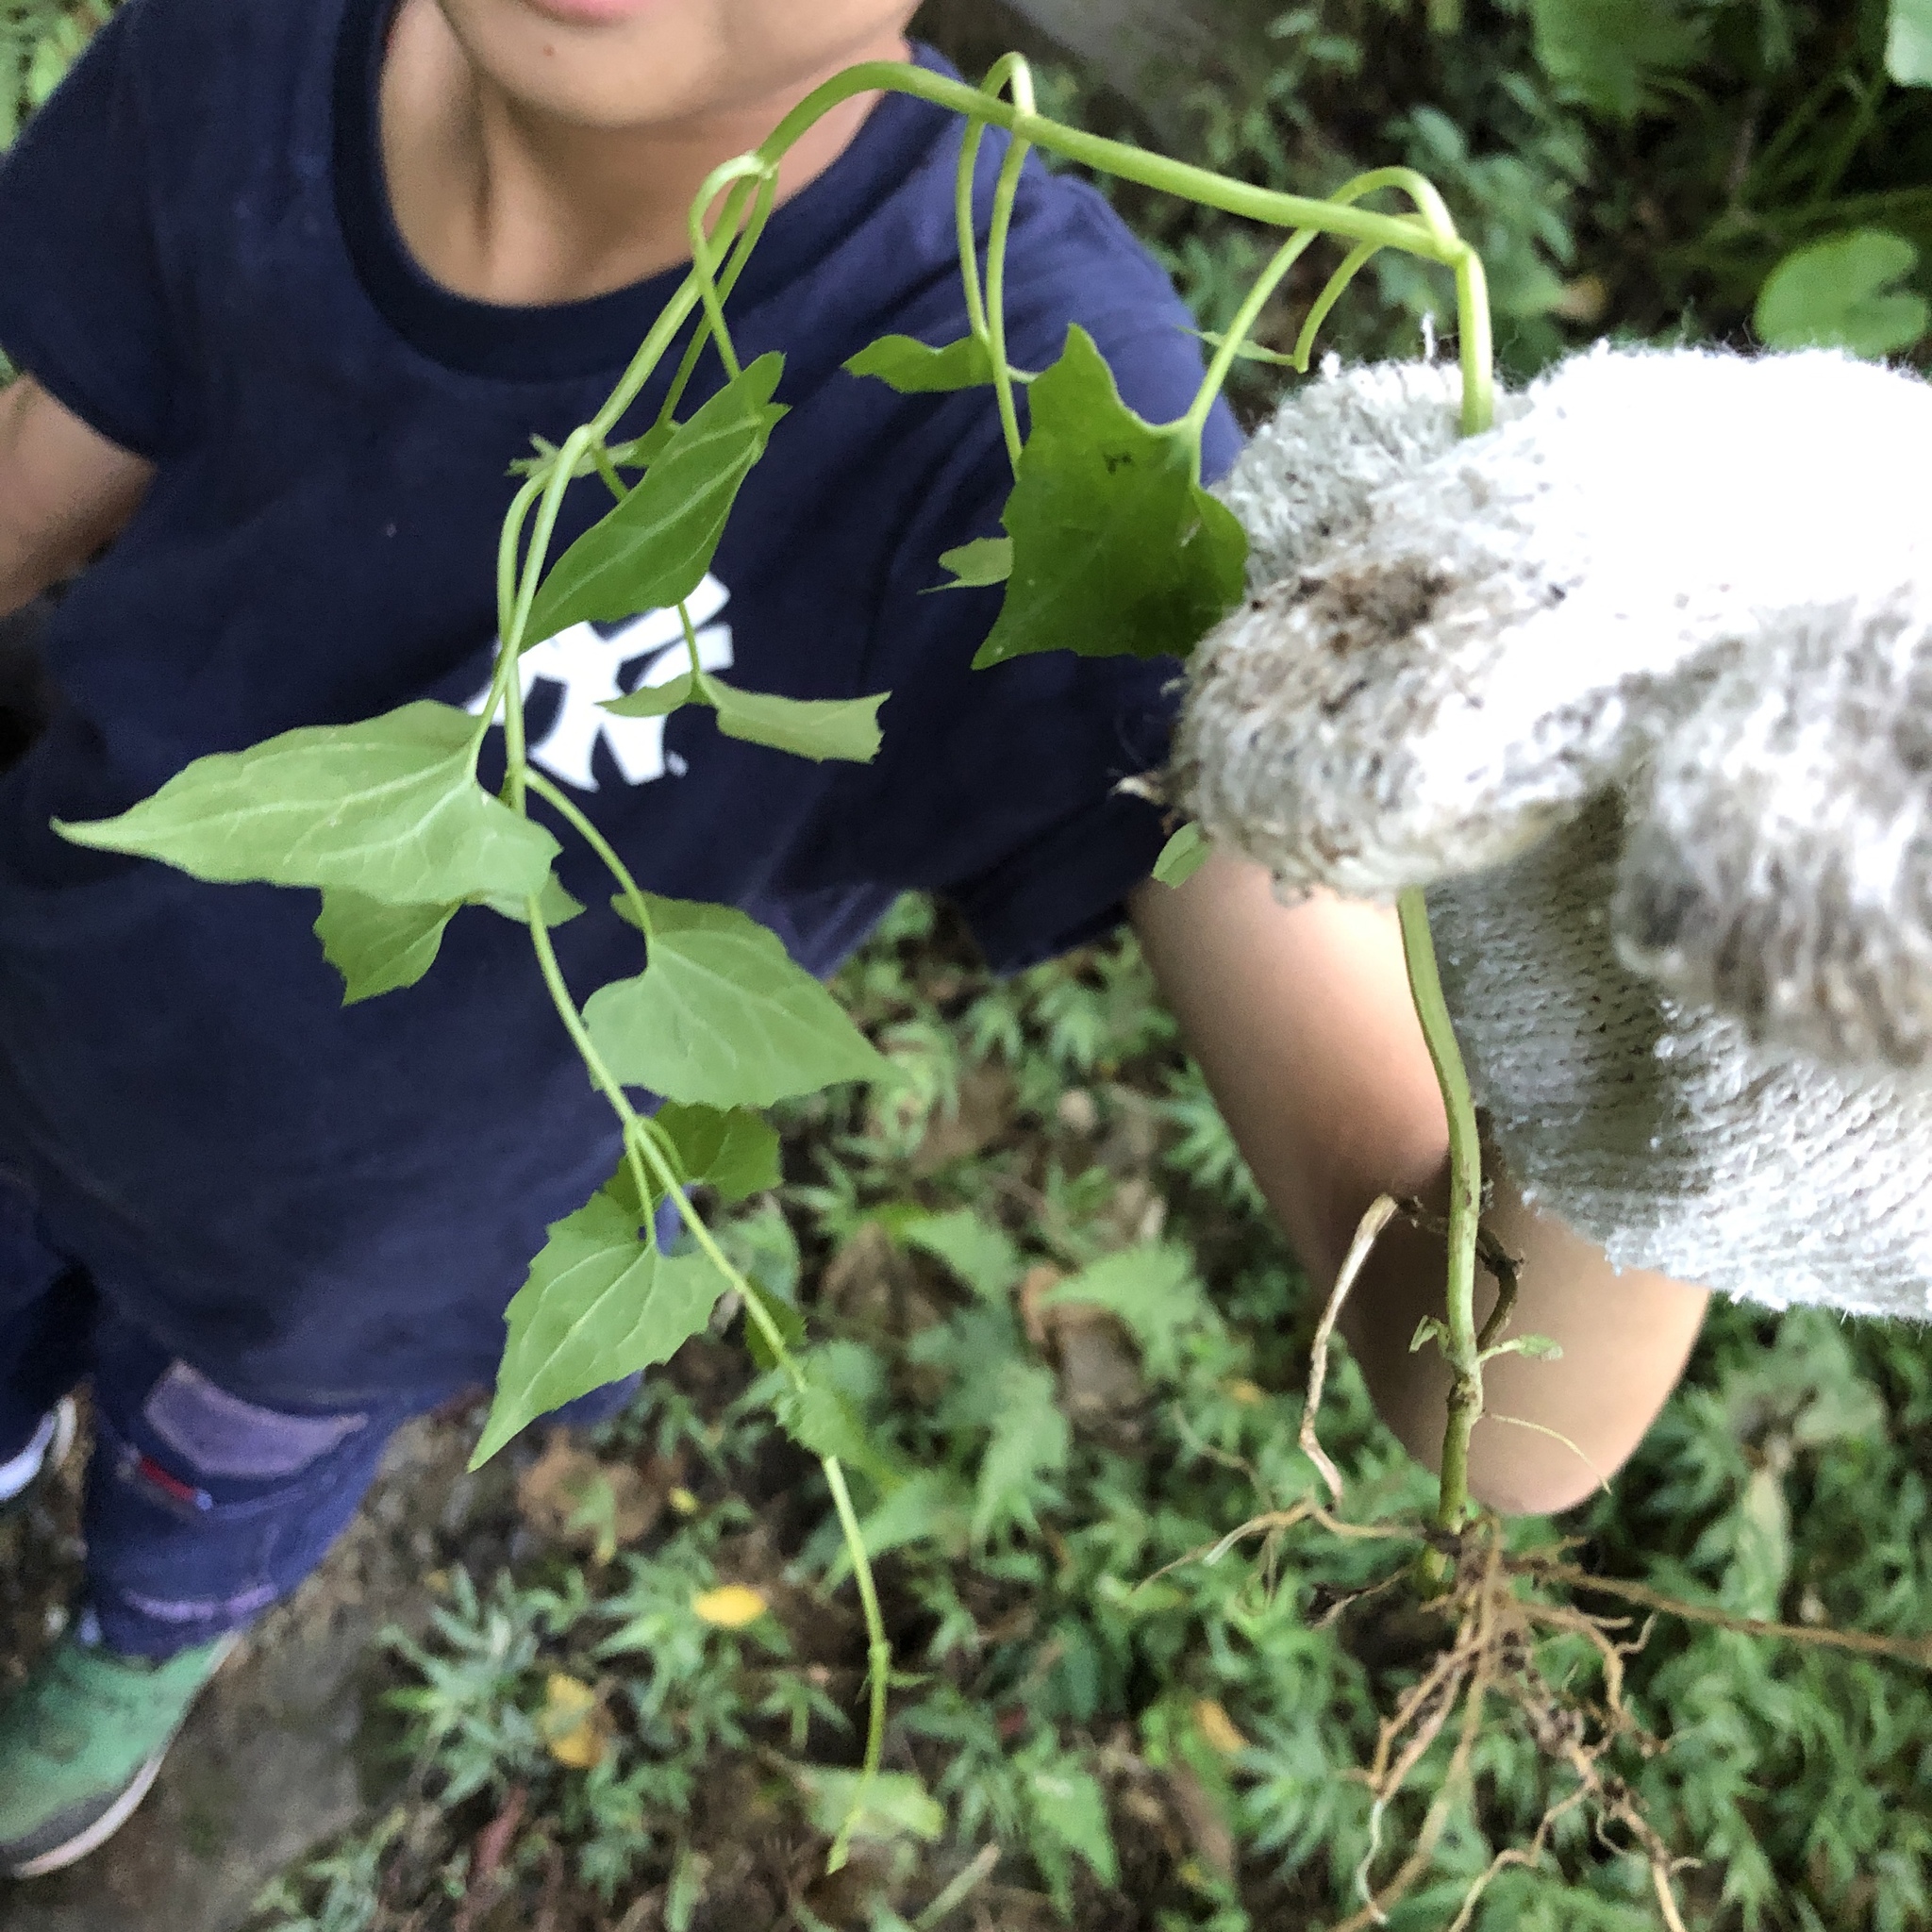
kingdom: Plantae
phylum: Tracheophyta
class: Magnoliopsida
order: Asterales
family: Asteraceae
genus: Mikania
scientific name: Mikania micrantha
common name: Mile-a-minute
